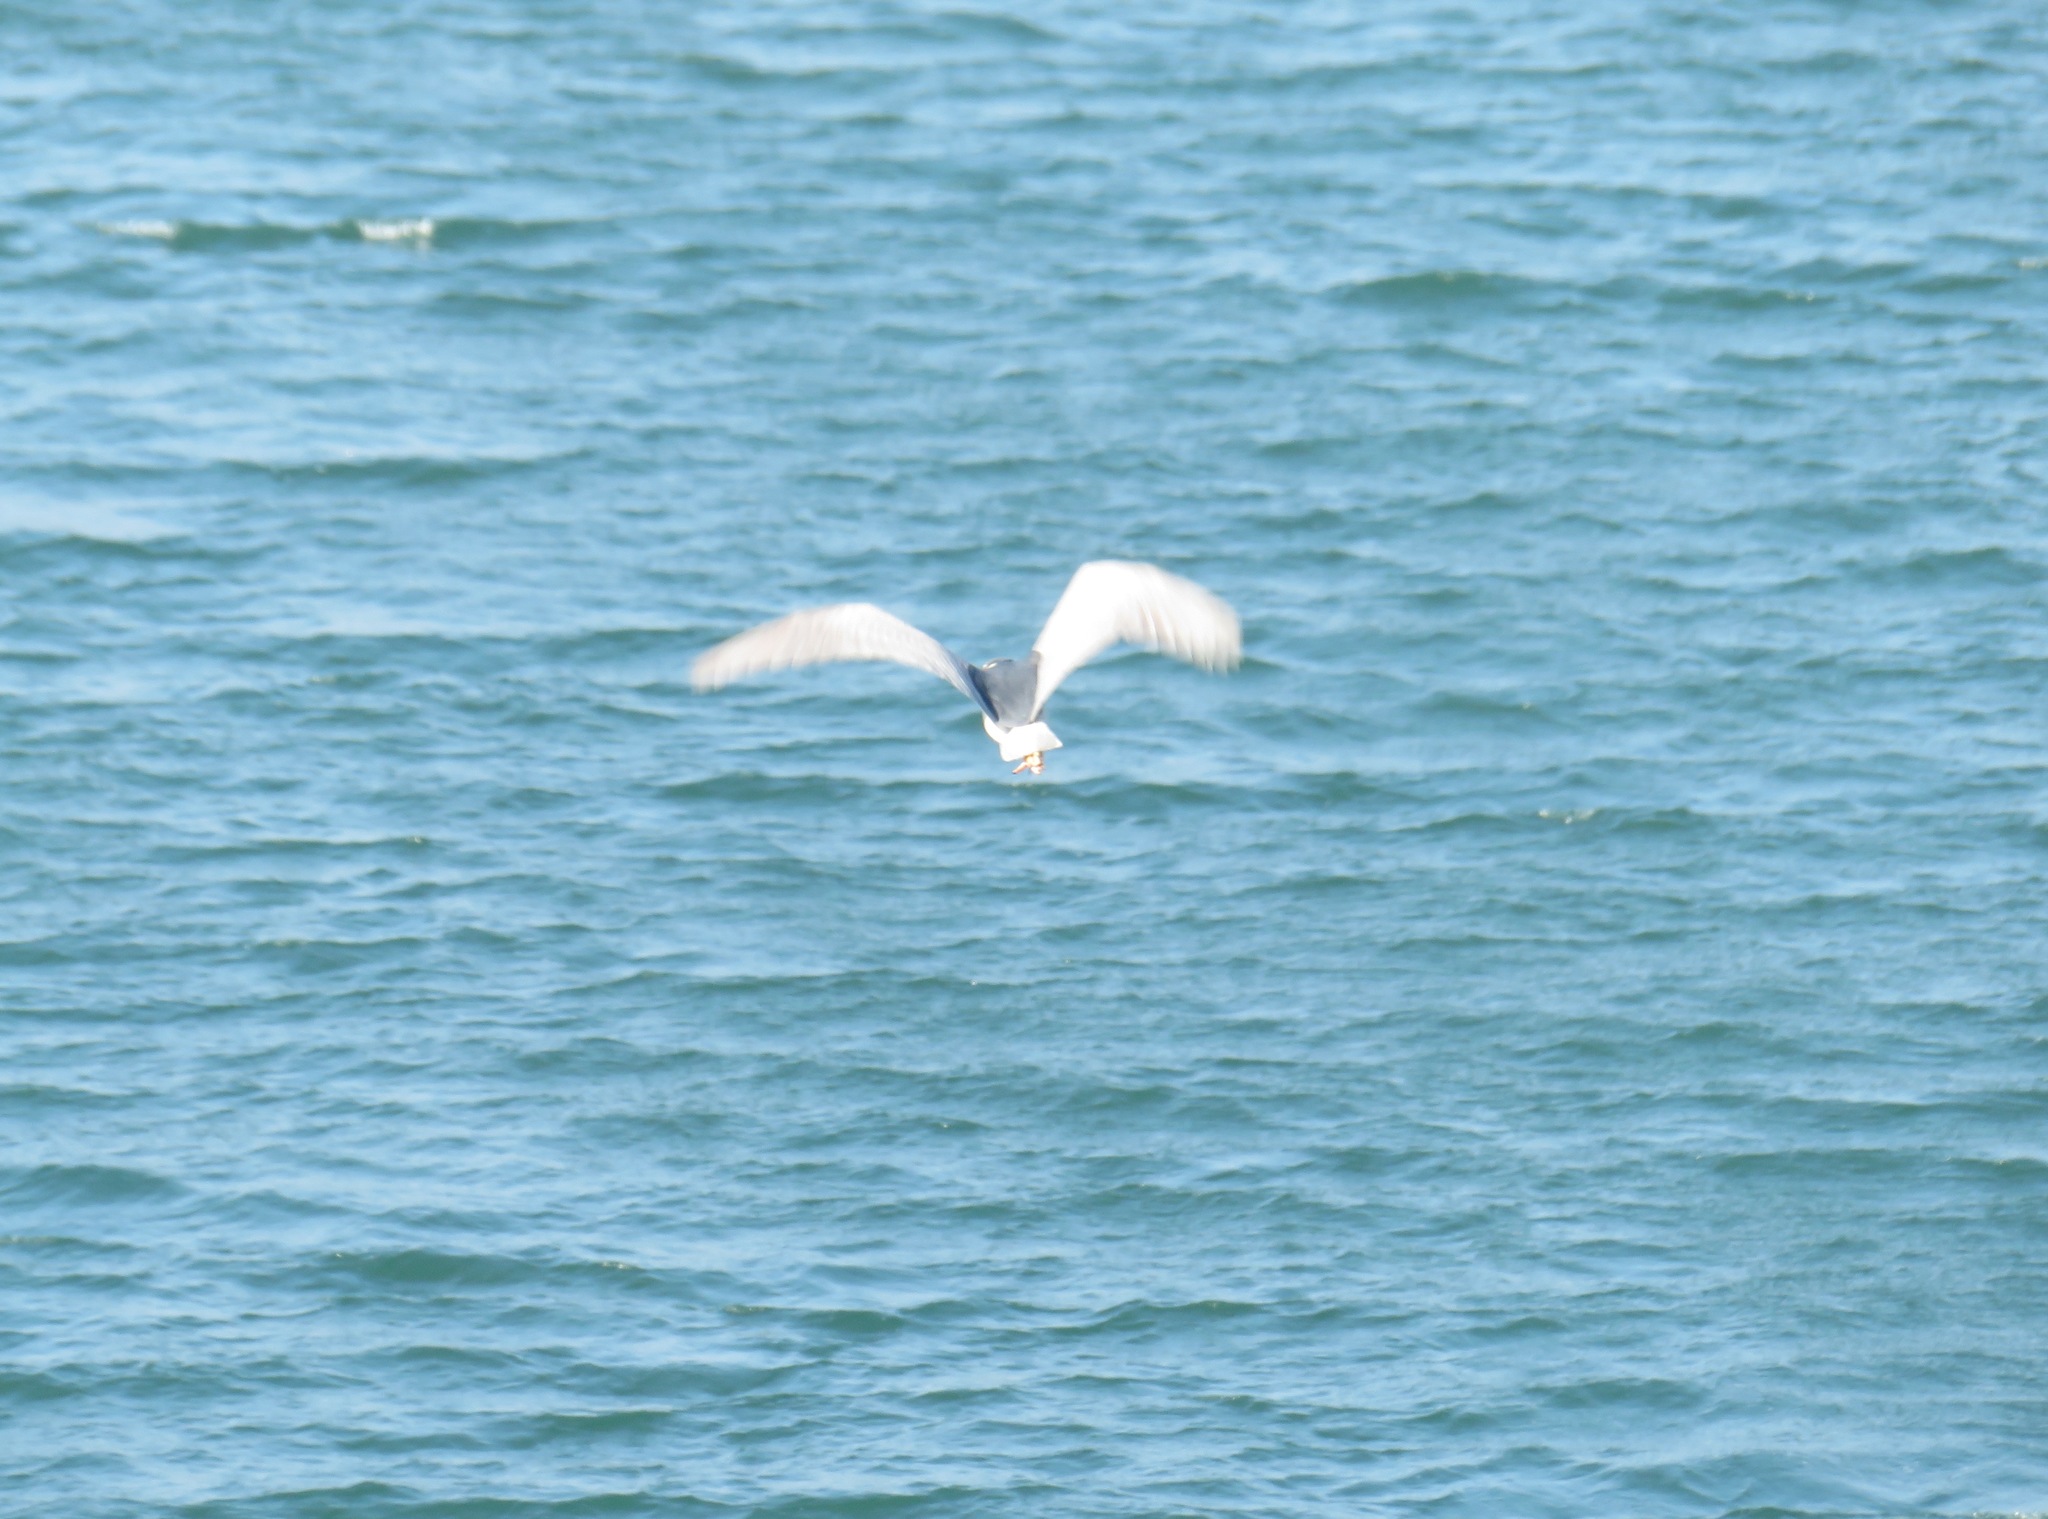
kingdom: Animalia
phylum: Chordata
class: Aves
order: Pelecaniformes
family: Ardeidae
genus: Nycticorax
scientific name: Nycticorax nycticorax
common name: Black-crowned night heron
